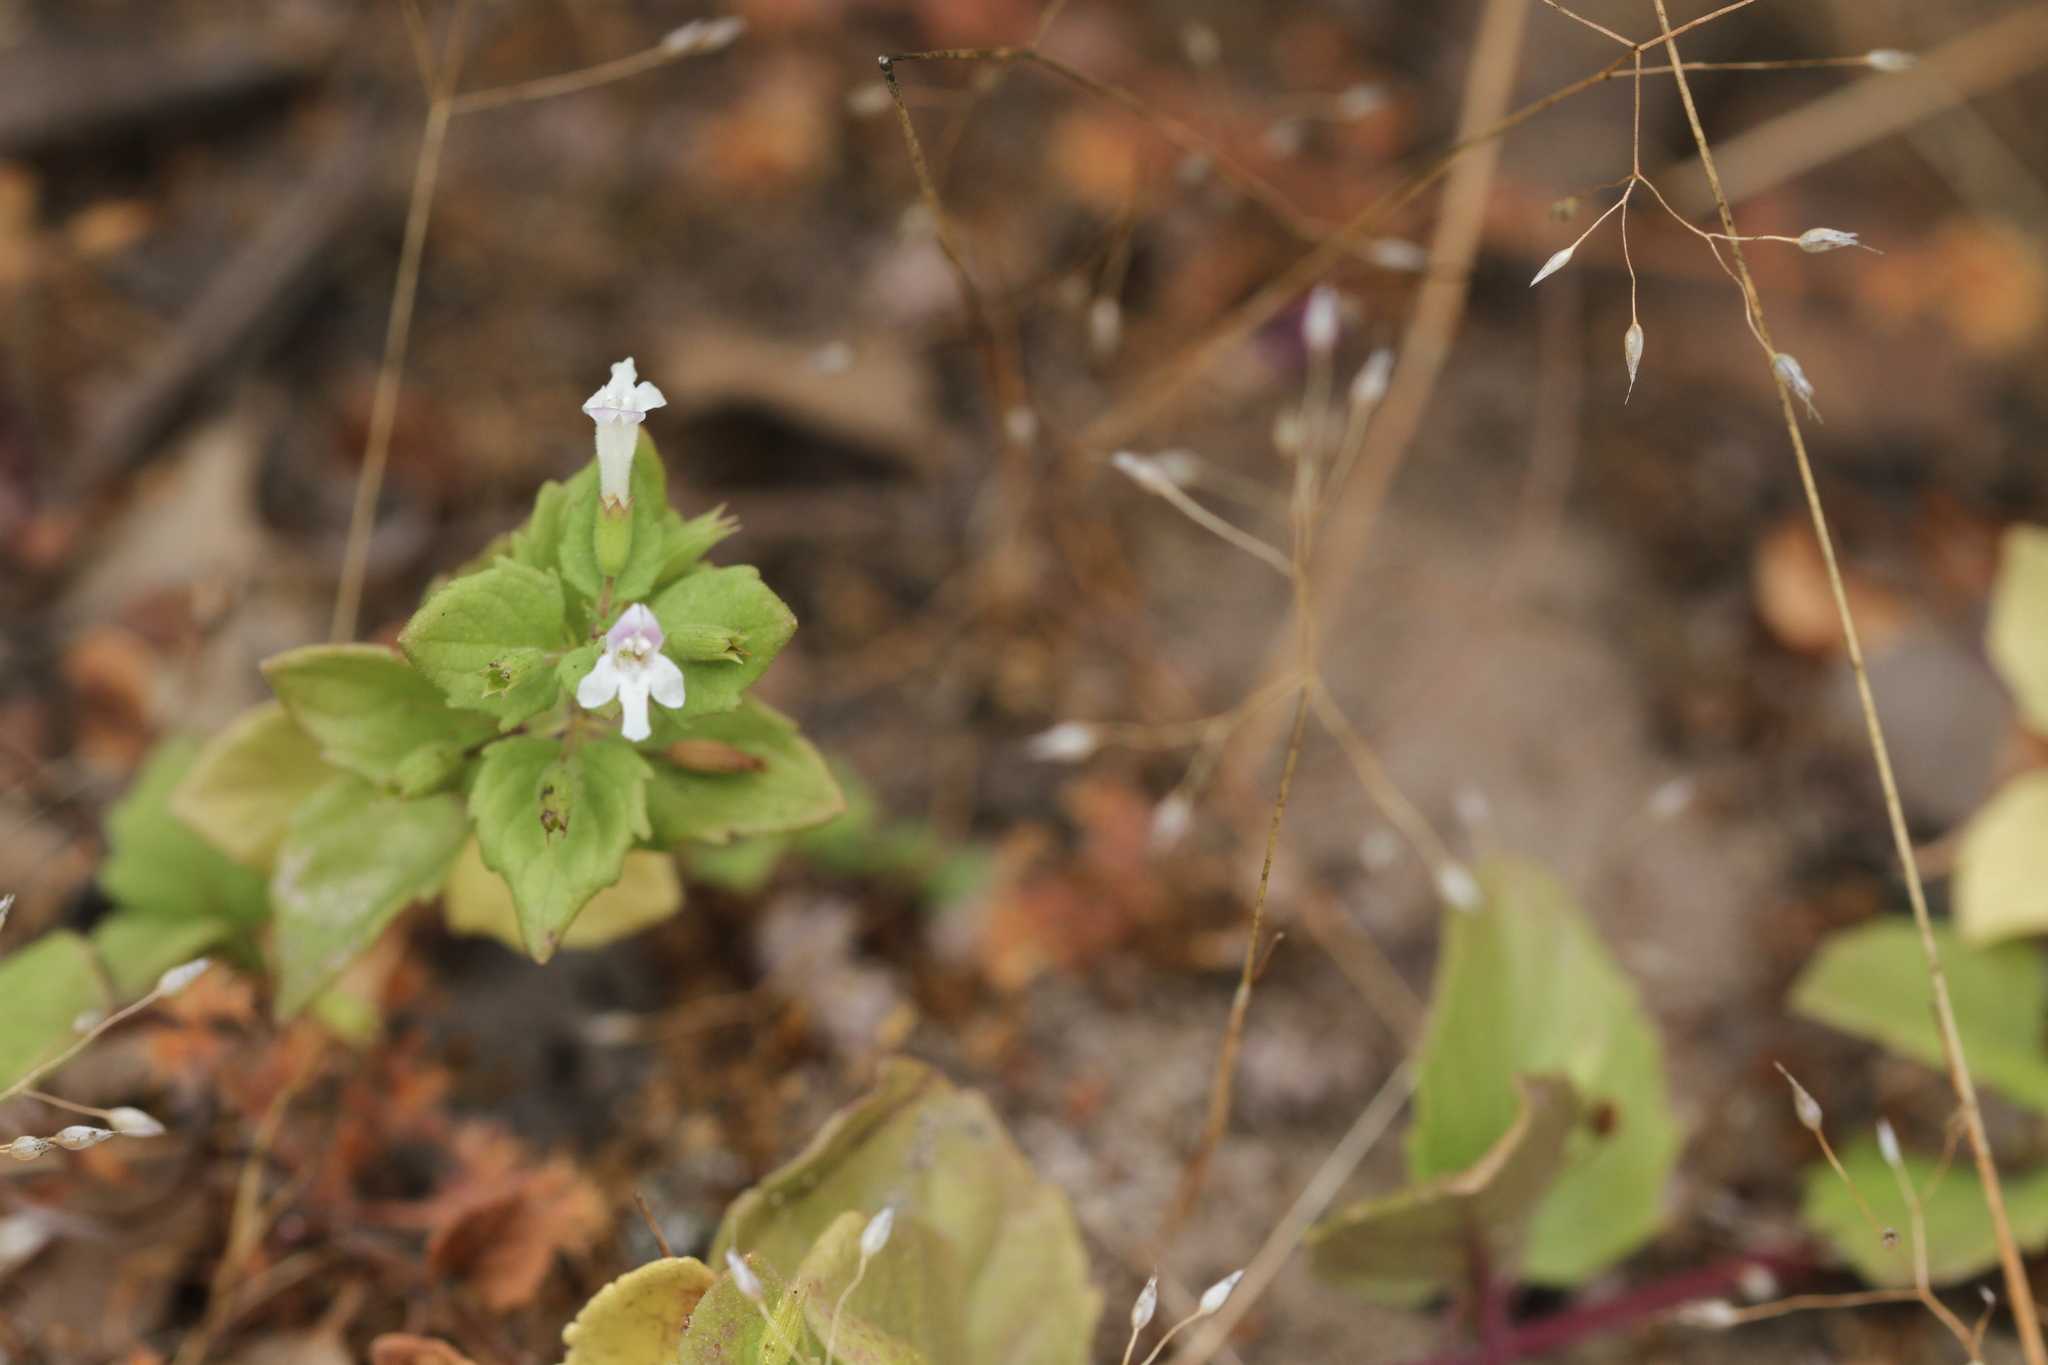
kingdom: Plantae
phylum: Tracheophyta
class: Magnoliopsida
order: Lamiales
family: Lamiaceae
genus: Micromeria
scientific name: Micromeria douglasii
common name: Yerba buena
